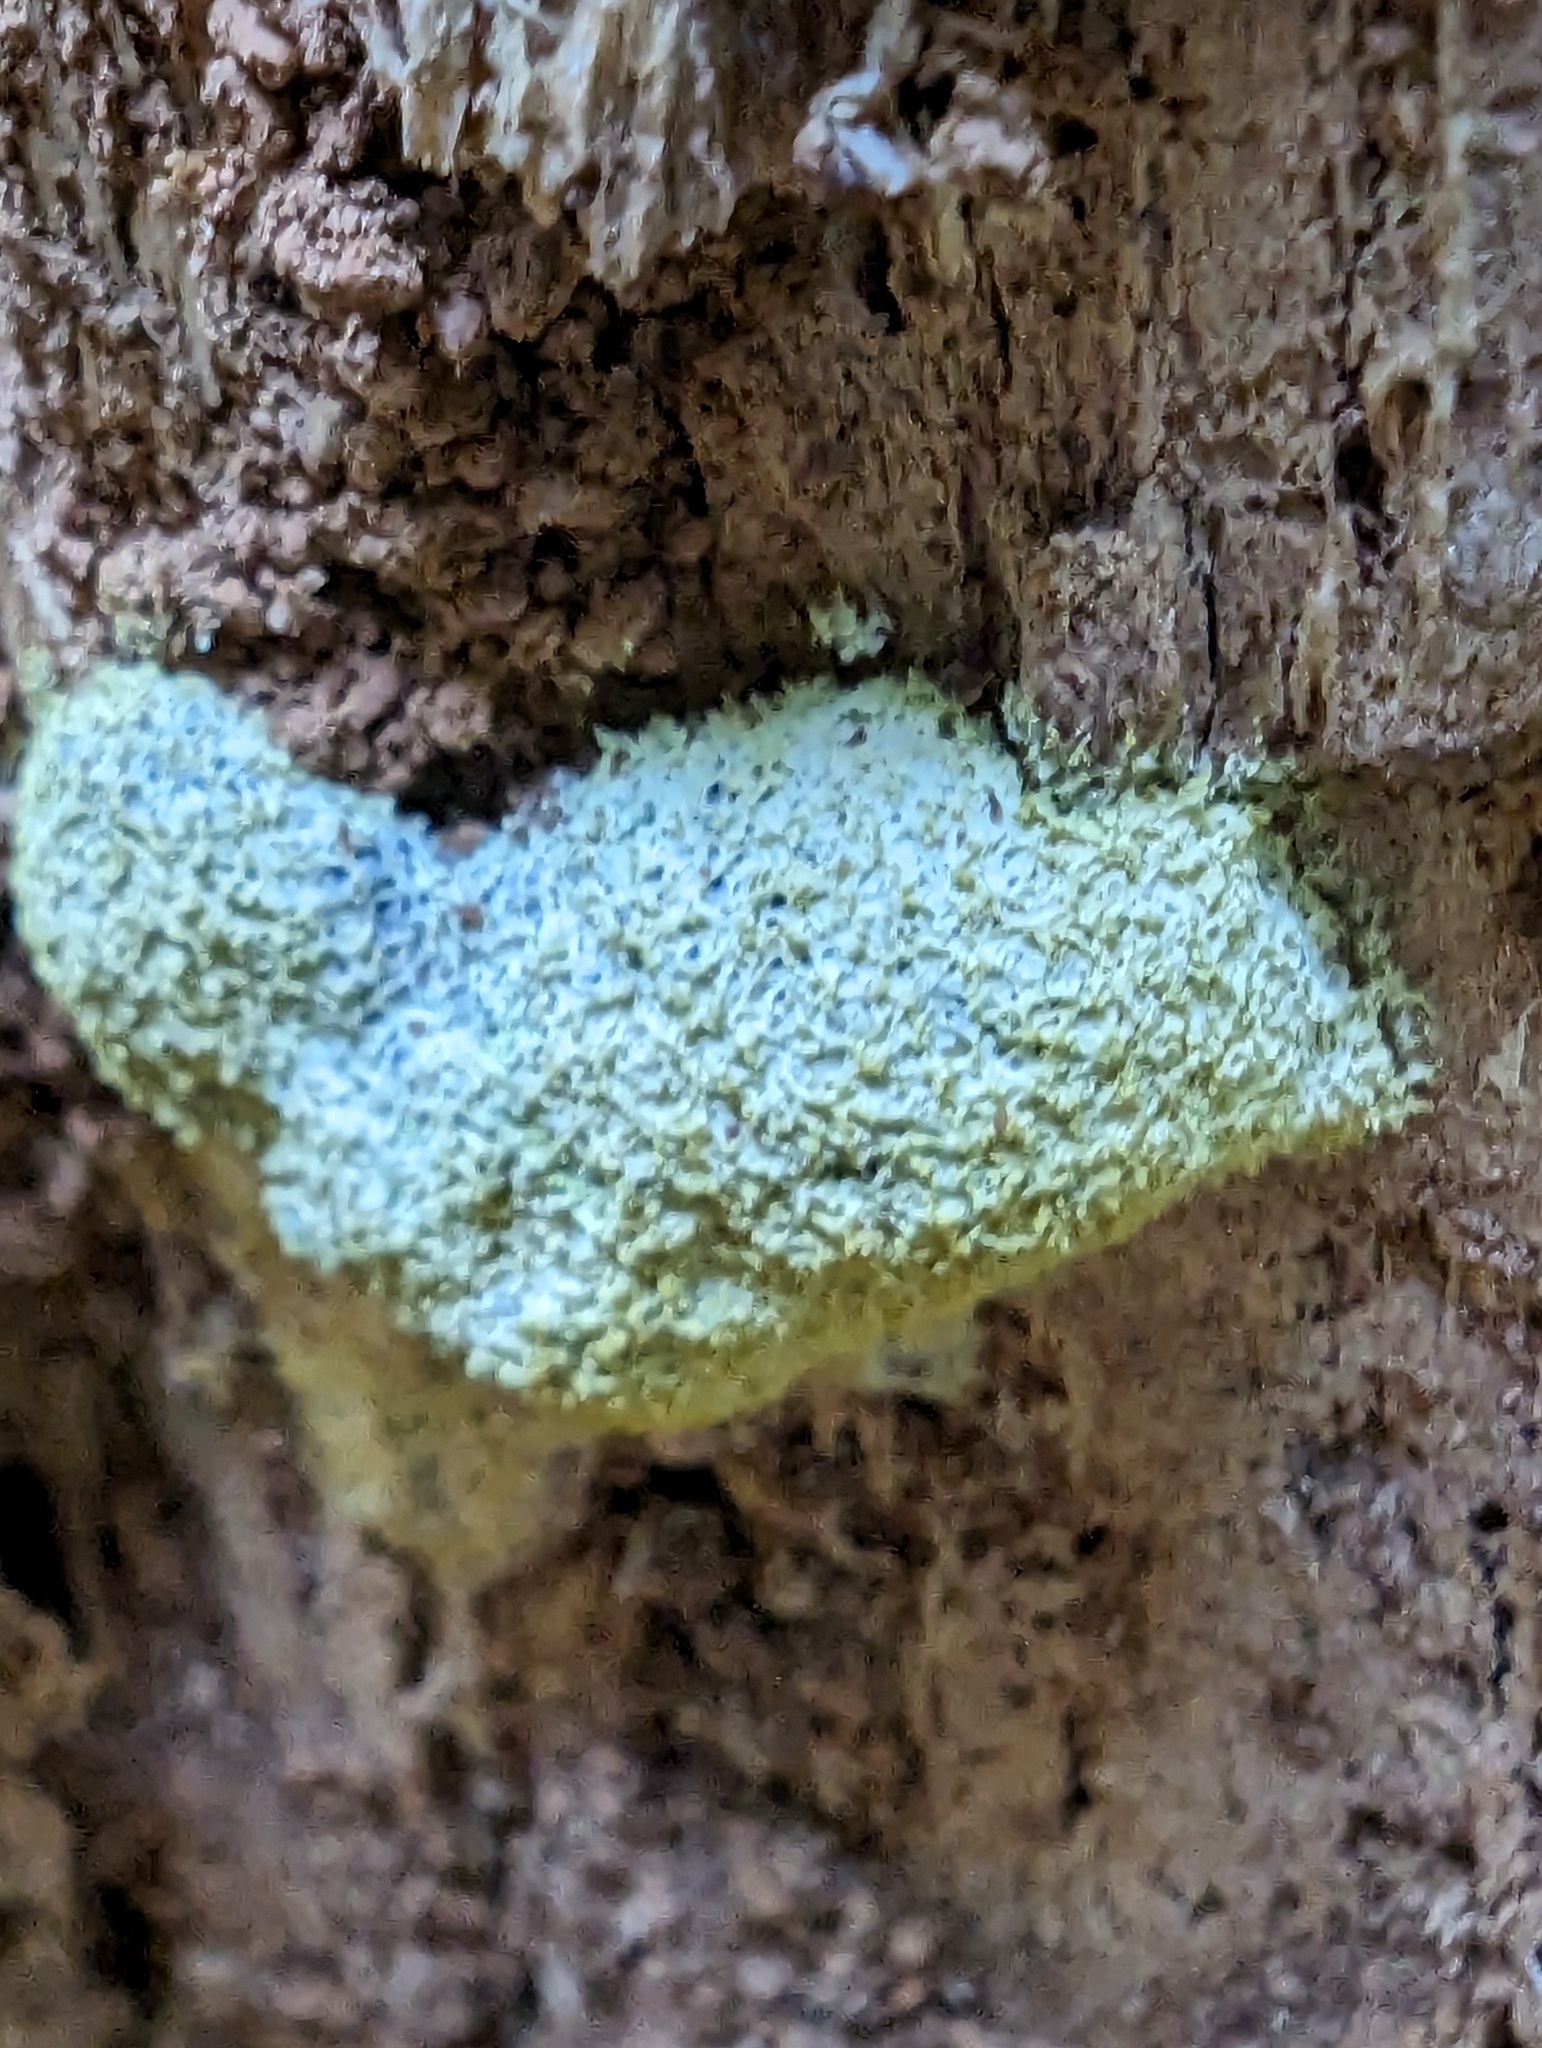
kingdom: Protozoa
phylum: Mycetozoa
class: Myxomycetes
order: Physarales
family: Physaraceae
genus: Fuligo
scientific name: Fuligo septica
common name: Dog vomit slime mold
